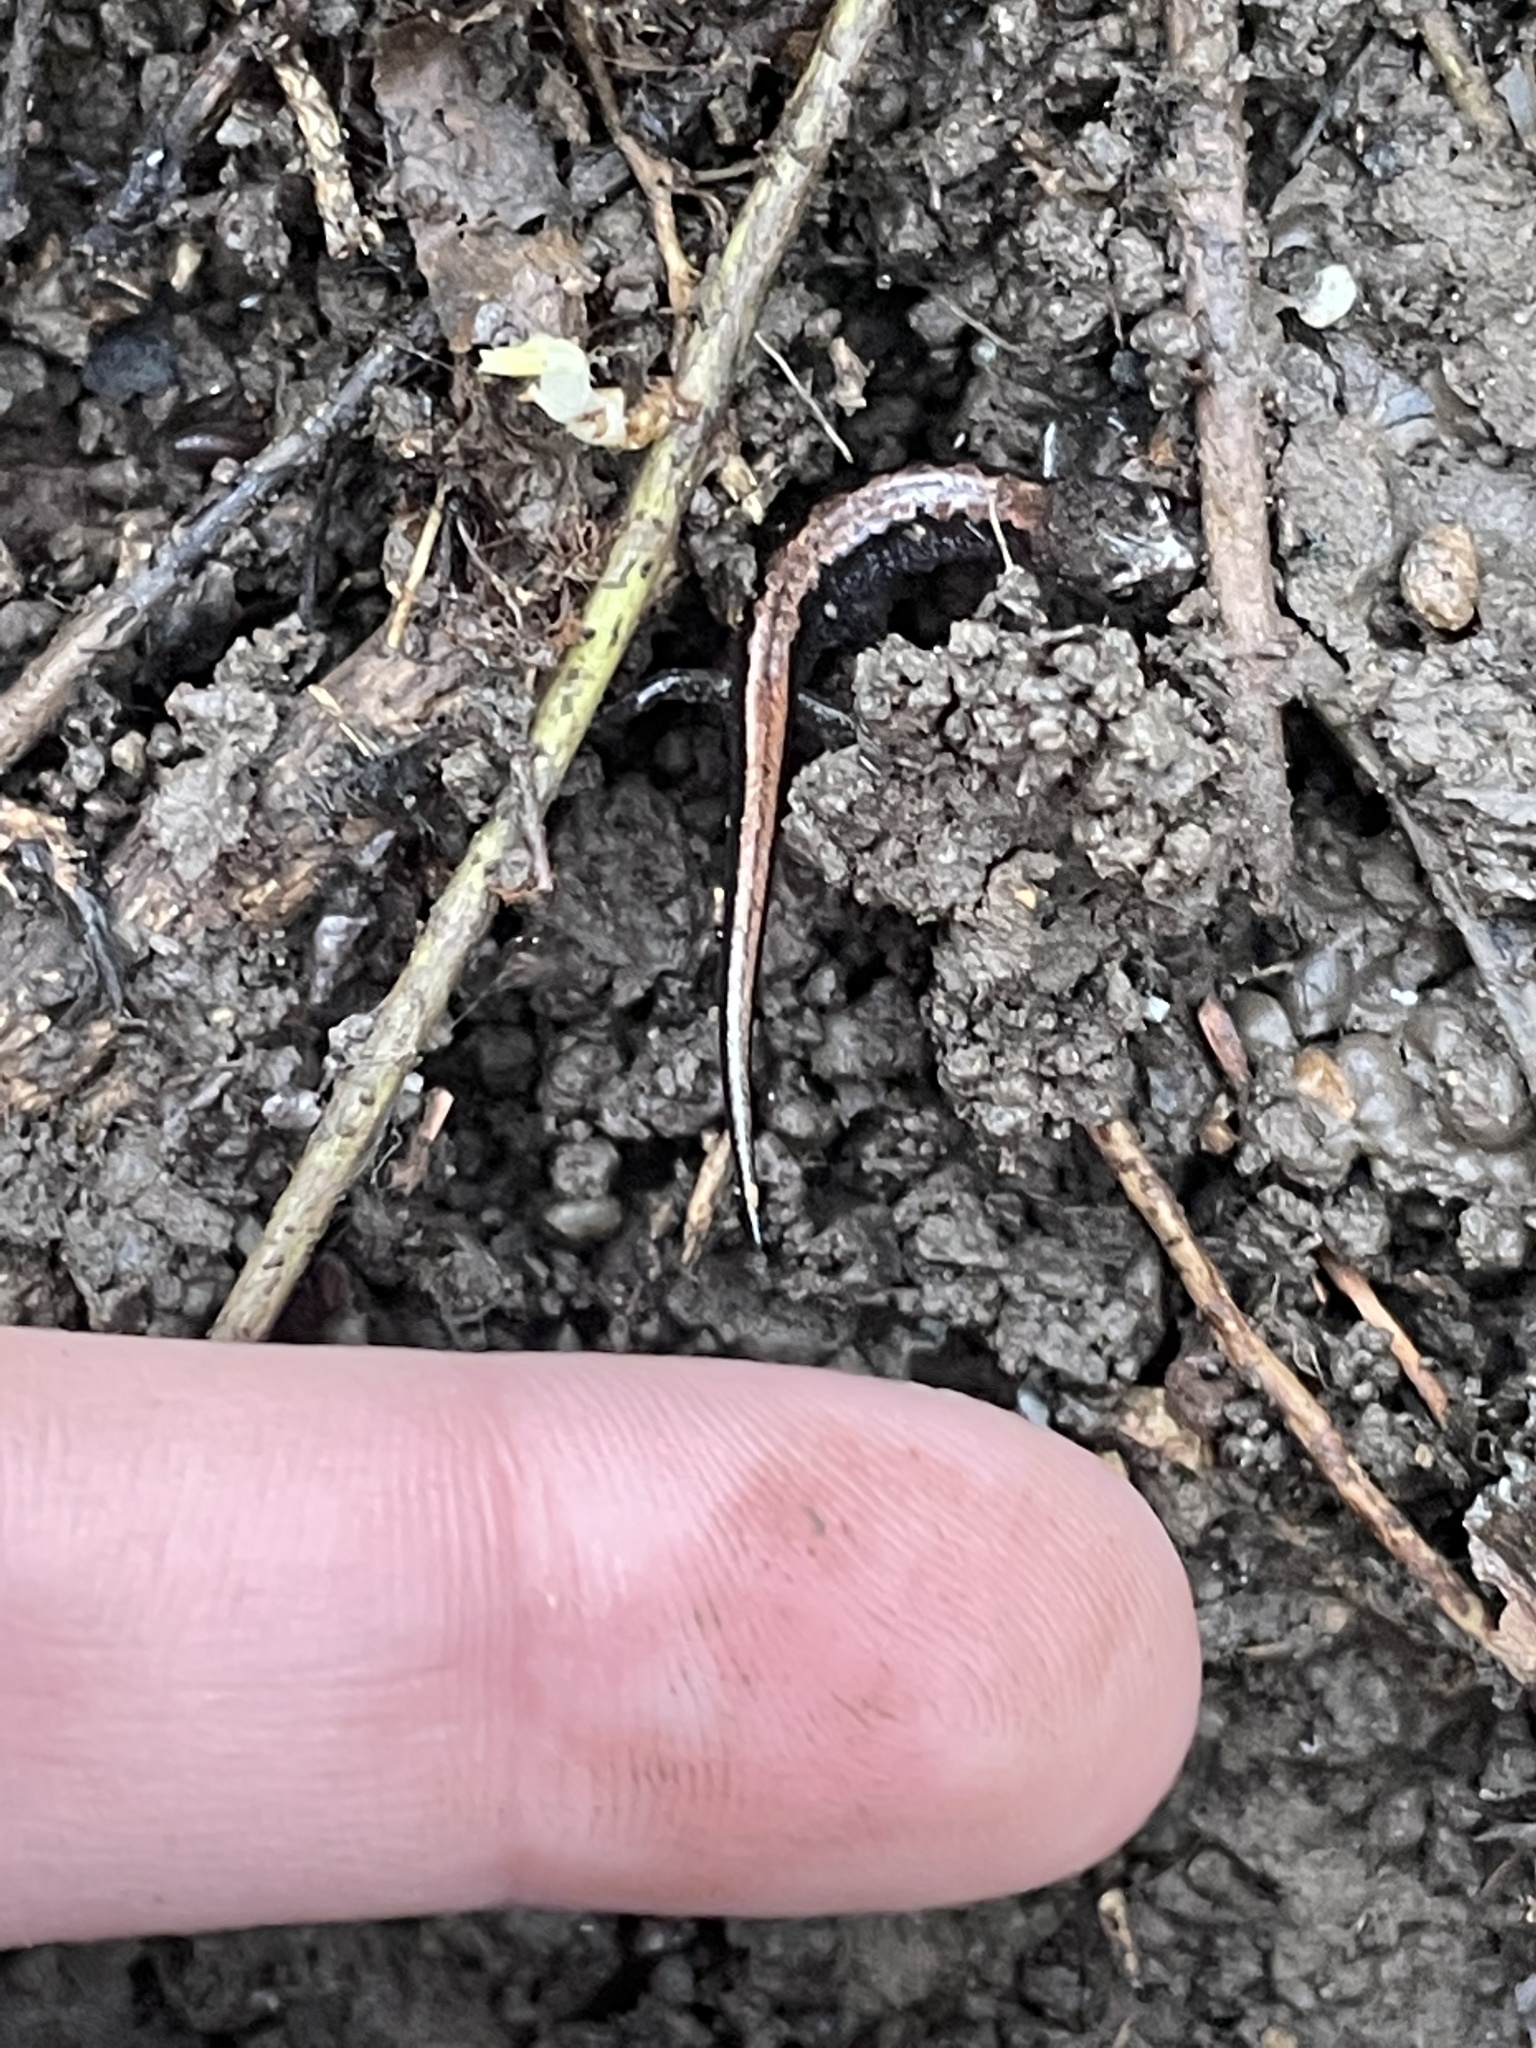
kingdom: Animalia
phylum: Chordata
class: Amphibia
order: Caudata
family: Plethodontidae
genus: Plethodon
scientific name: Plethodon dorsalis
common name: Northern zigzag salamander
